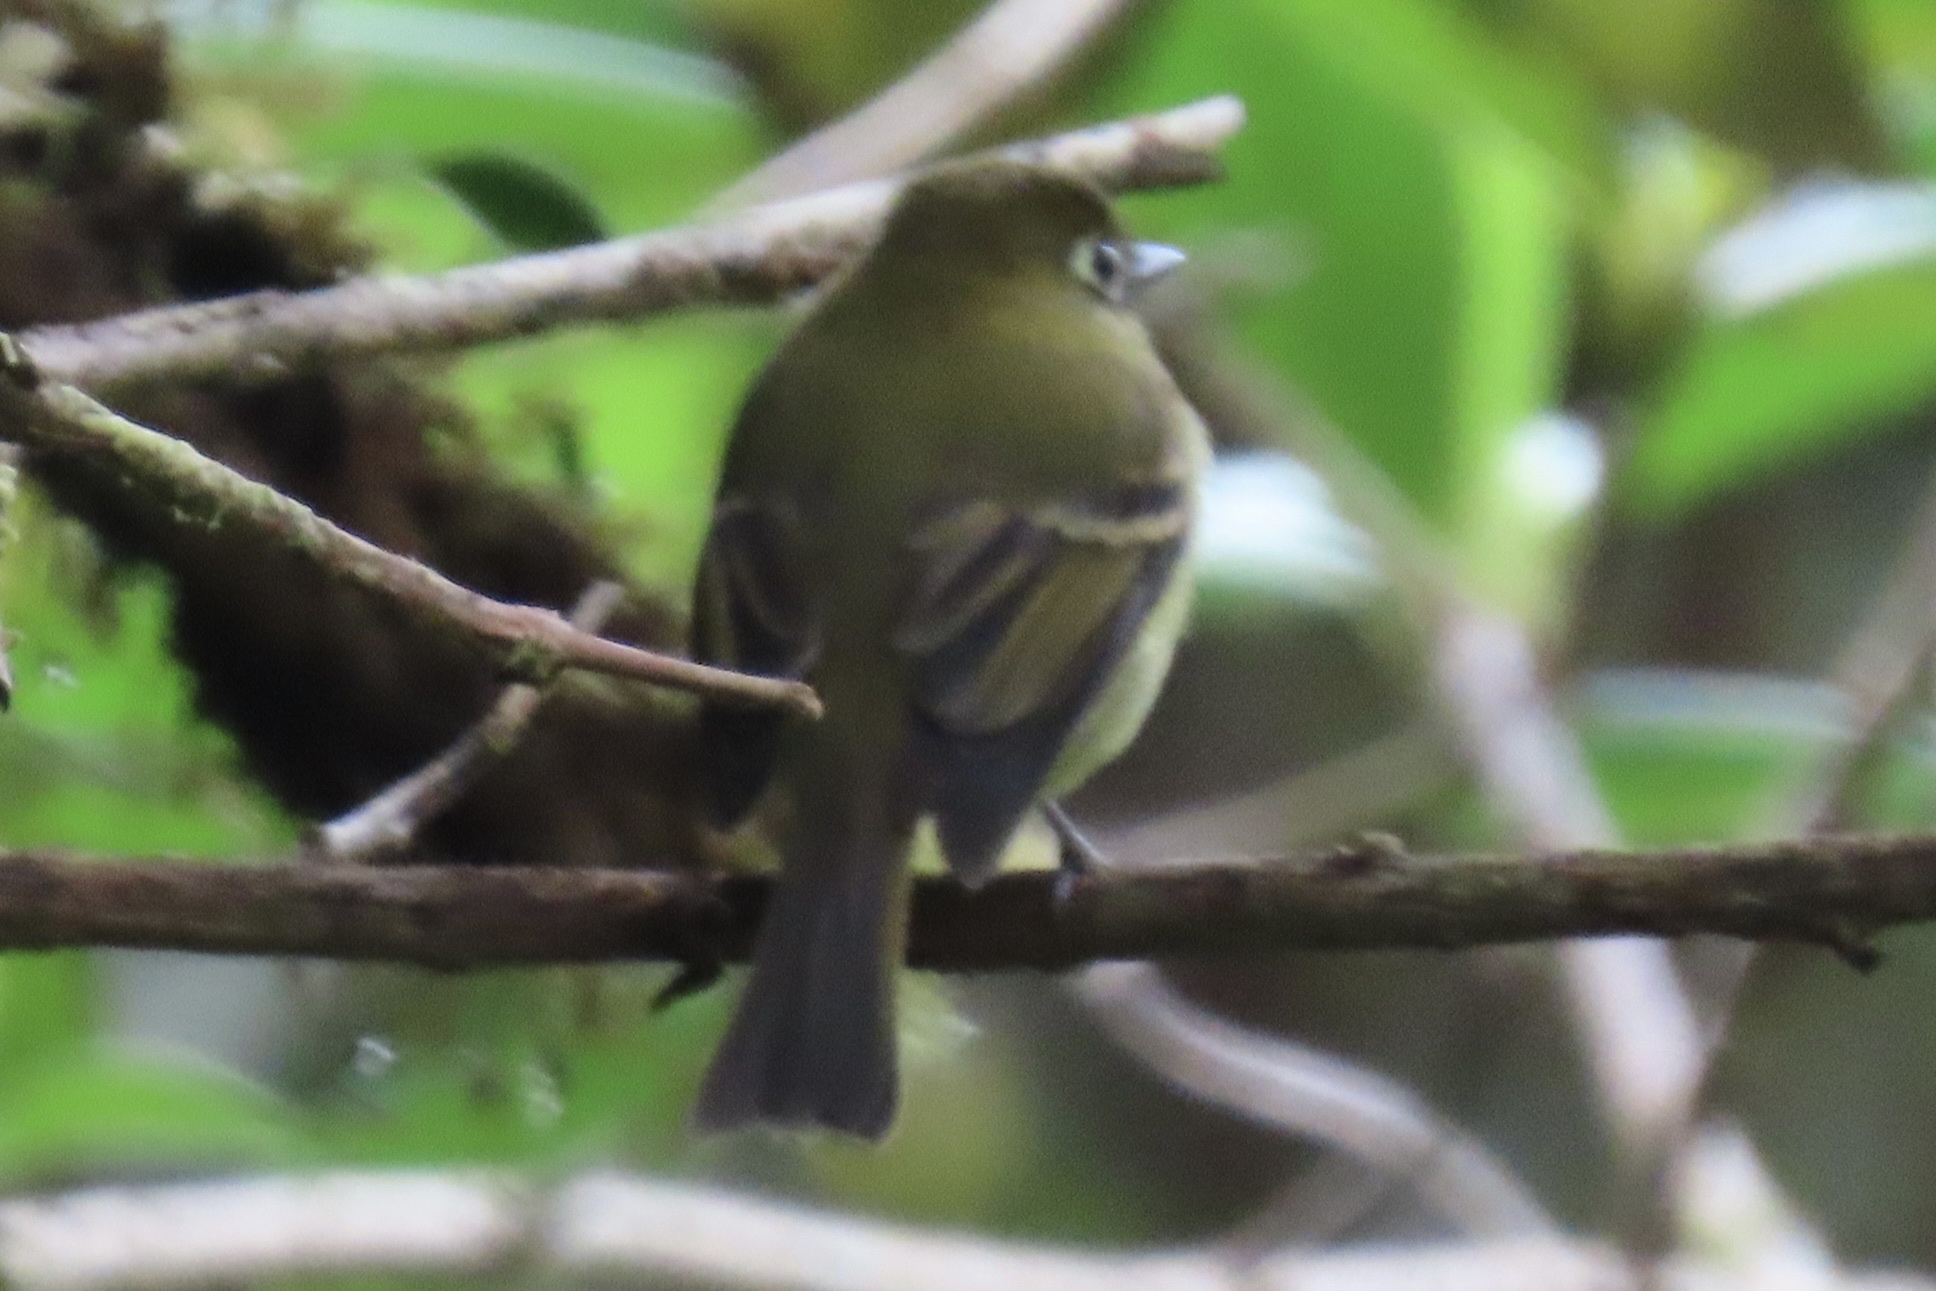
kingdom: Animalia
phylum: Chordata
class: Aves
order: Passeriformes
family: Tyrannidae
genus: Empidonax
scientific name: Empidonax flavescens
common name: Yellowish flycatcher
